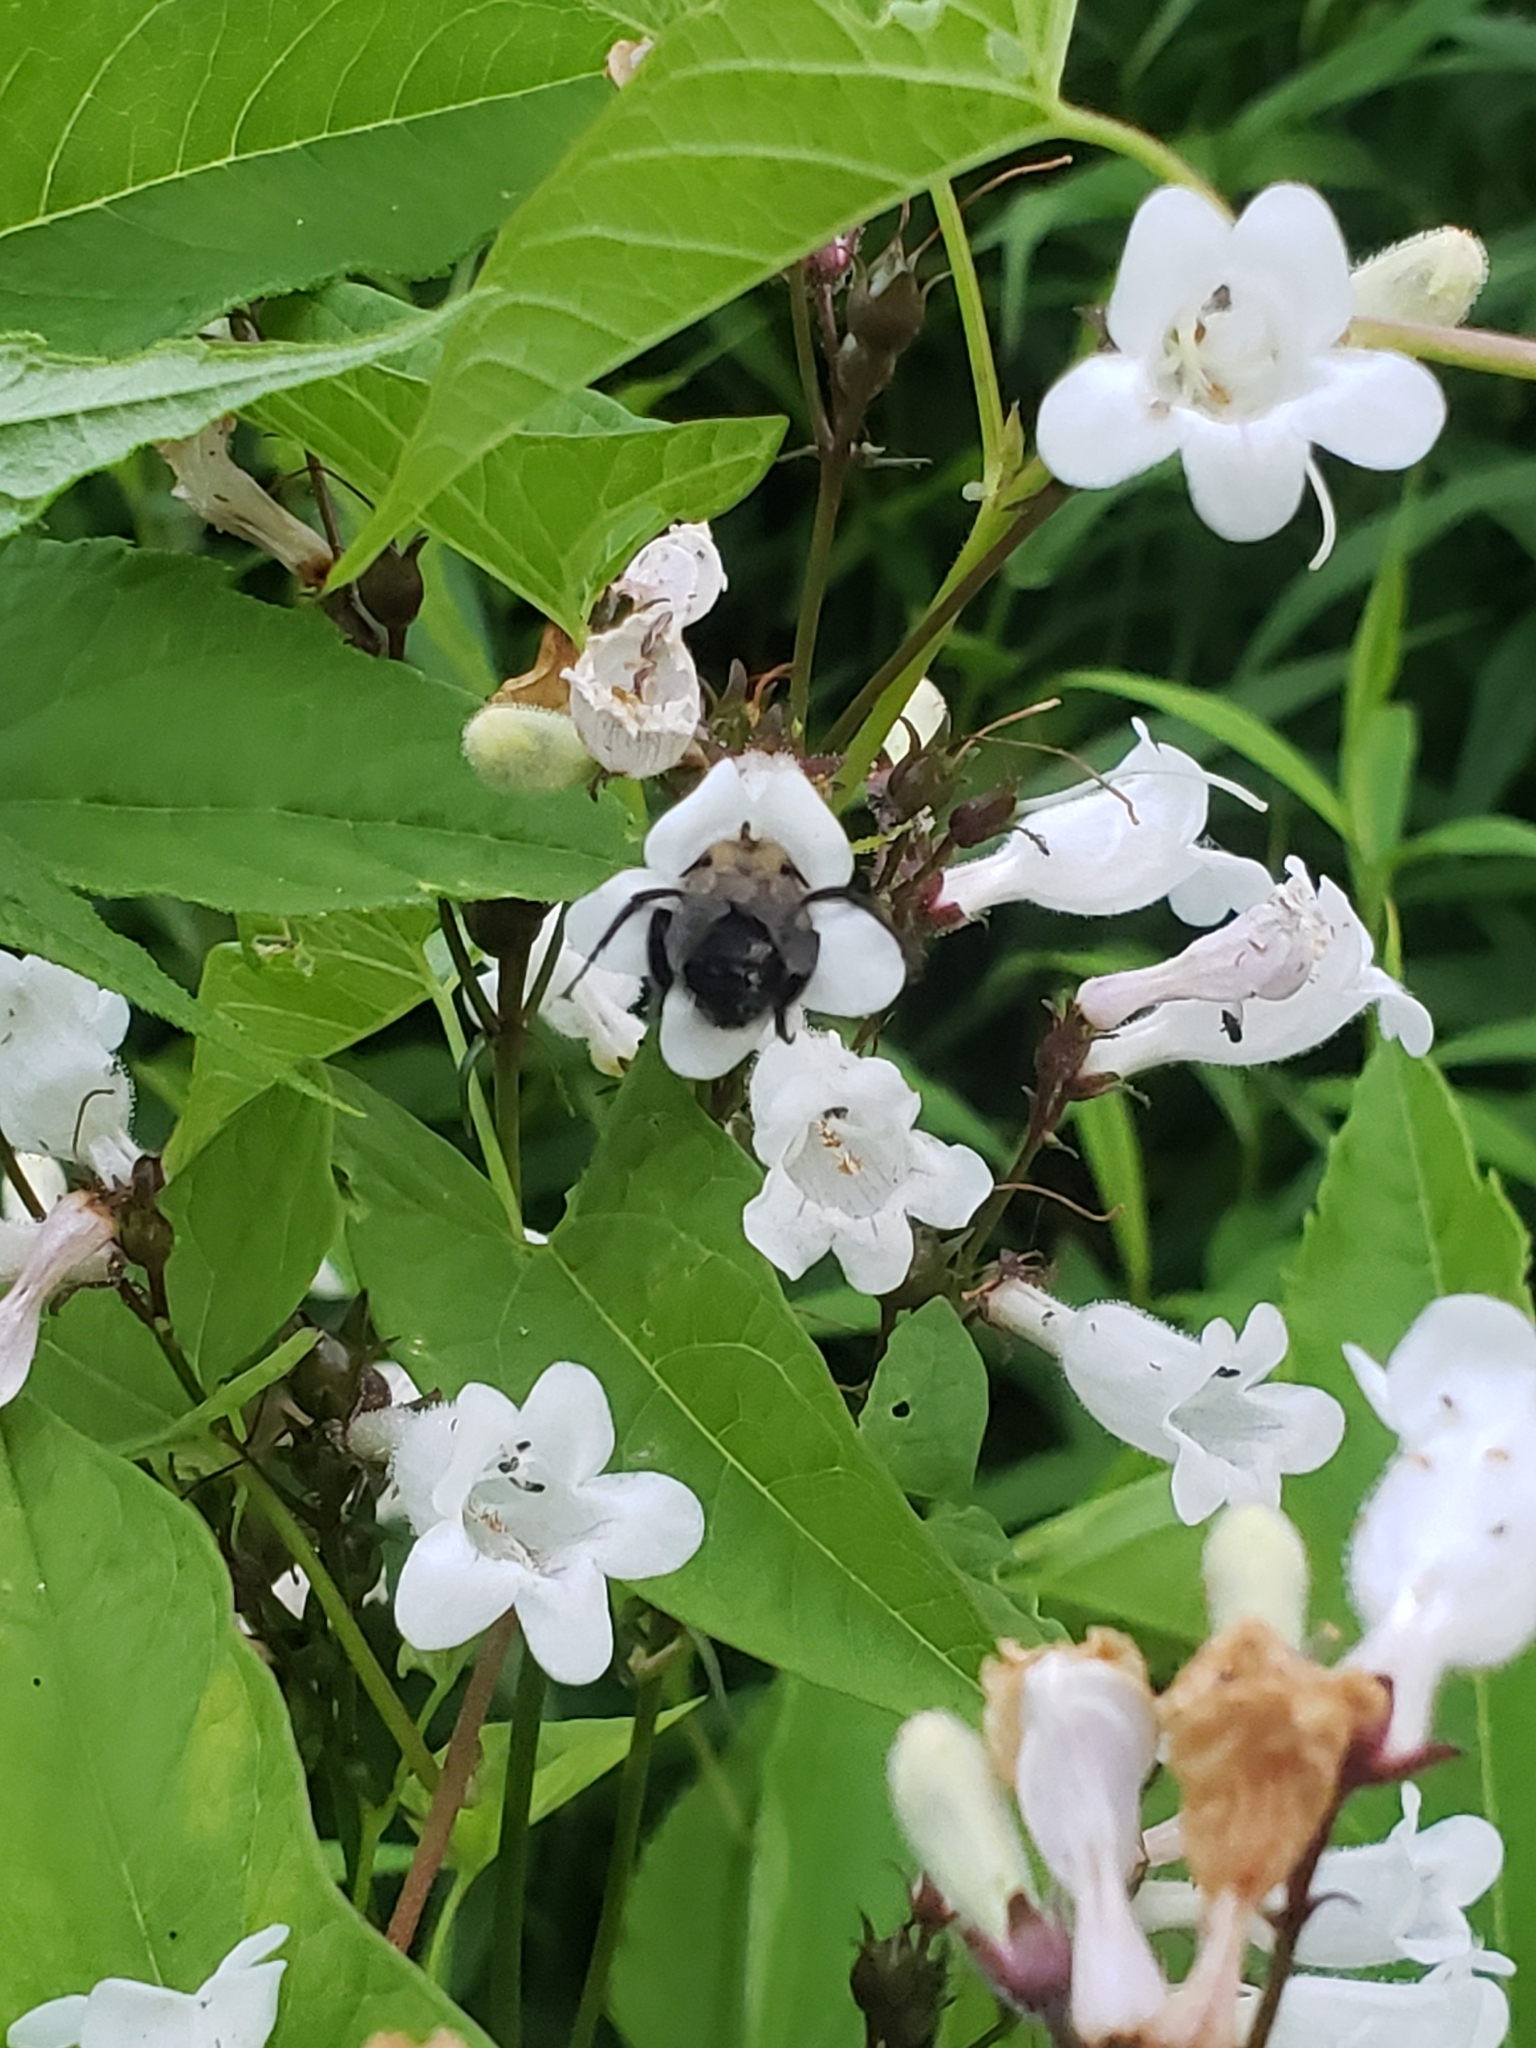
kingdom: Animalia
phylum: Arthropoda
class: Insecta
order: Hymenoptera
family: Apidae
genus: Anthophora
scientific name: Anthophora abrupta
